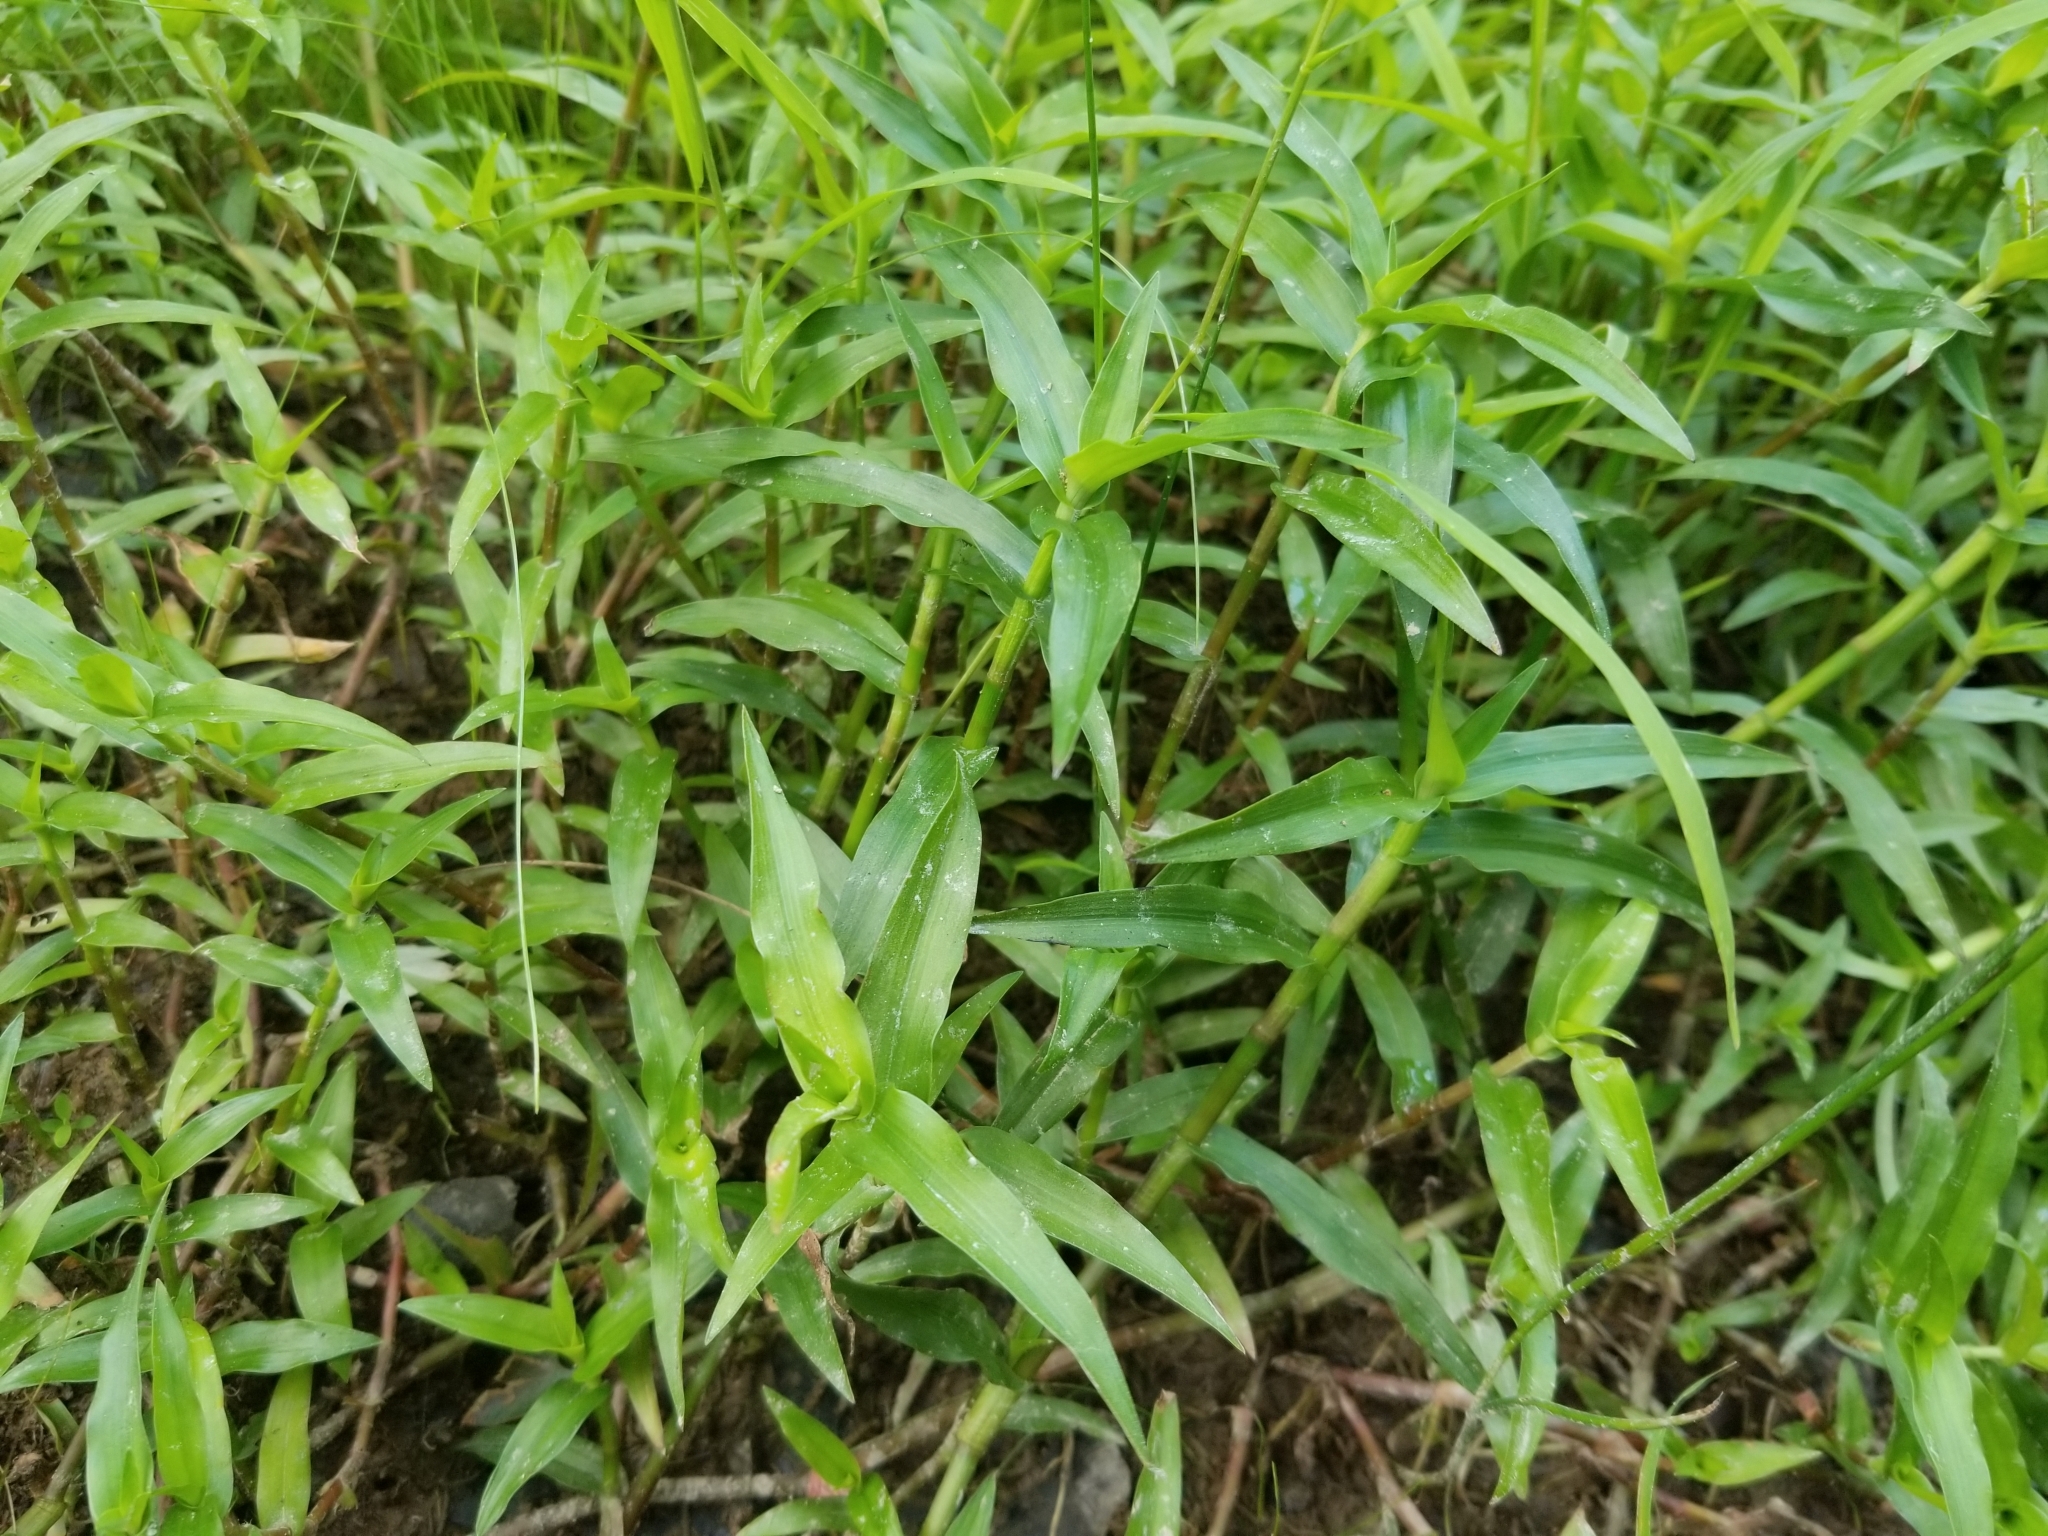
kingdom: Plantae
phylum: Tracheophyta
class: Liliopsida
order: Commelinales
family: Commelinaceae
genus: Murdannia
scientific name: Murdannia keisak
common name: Wartremoving herb
